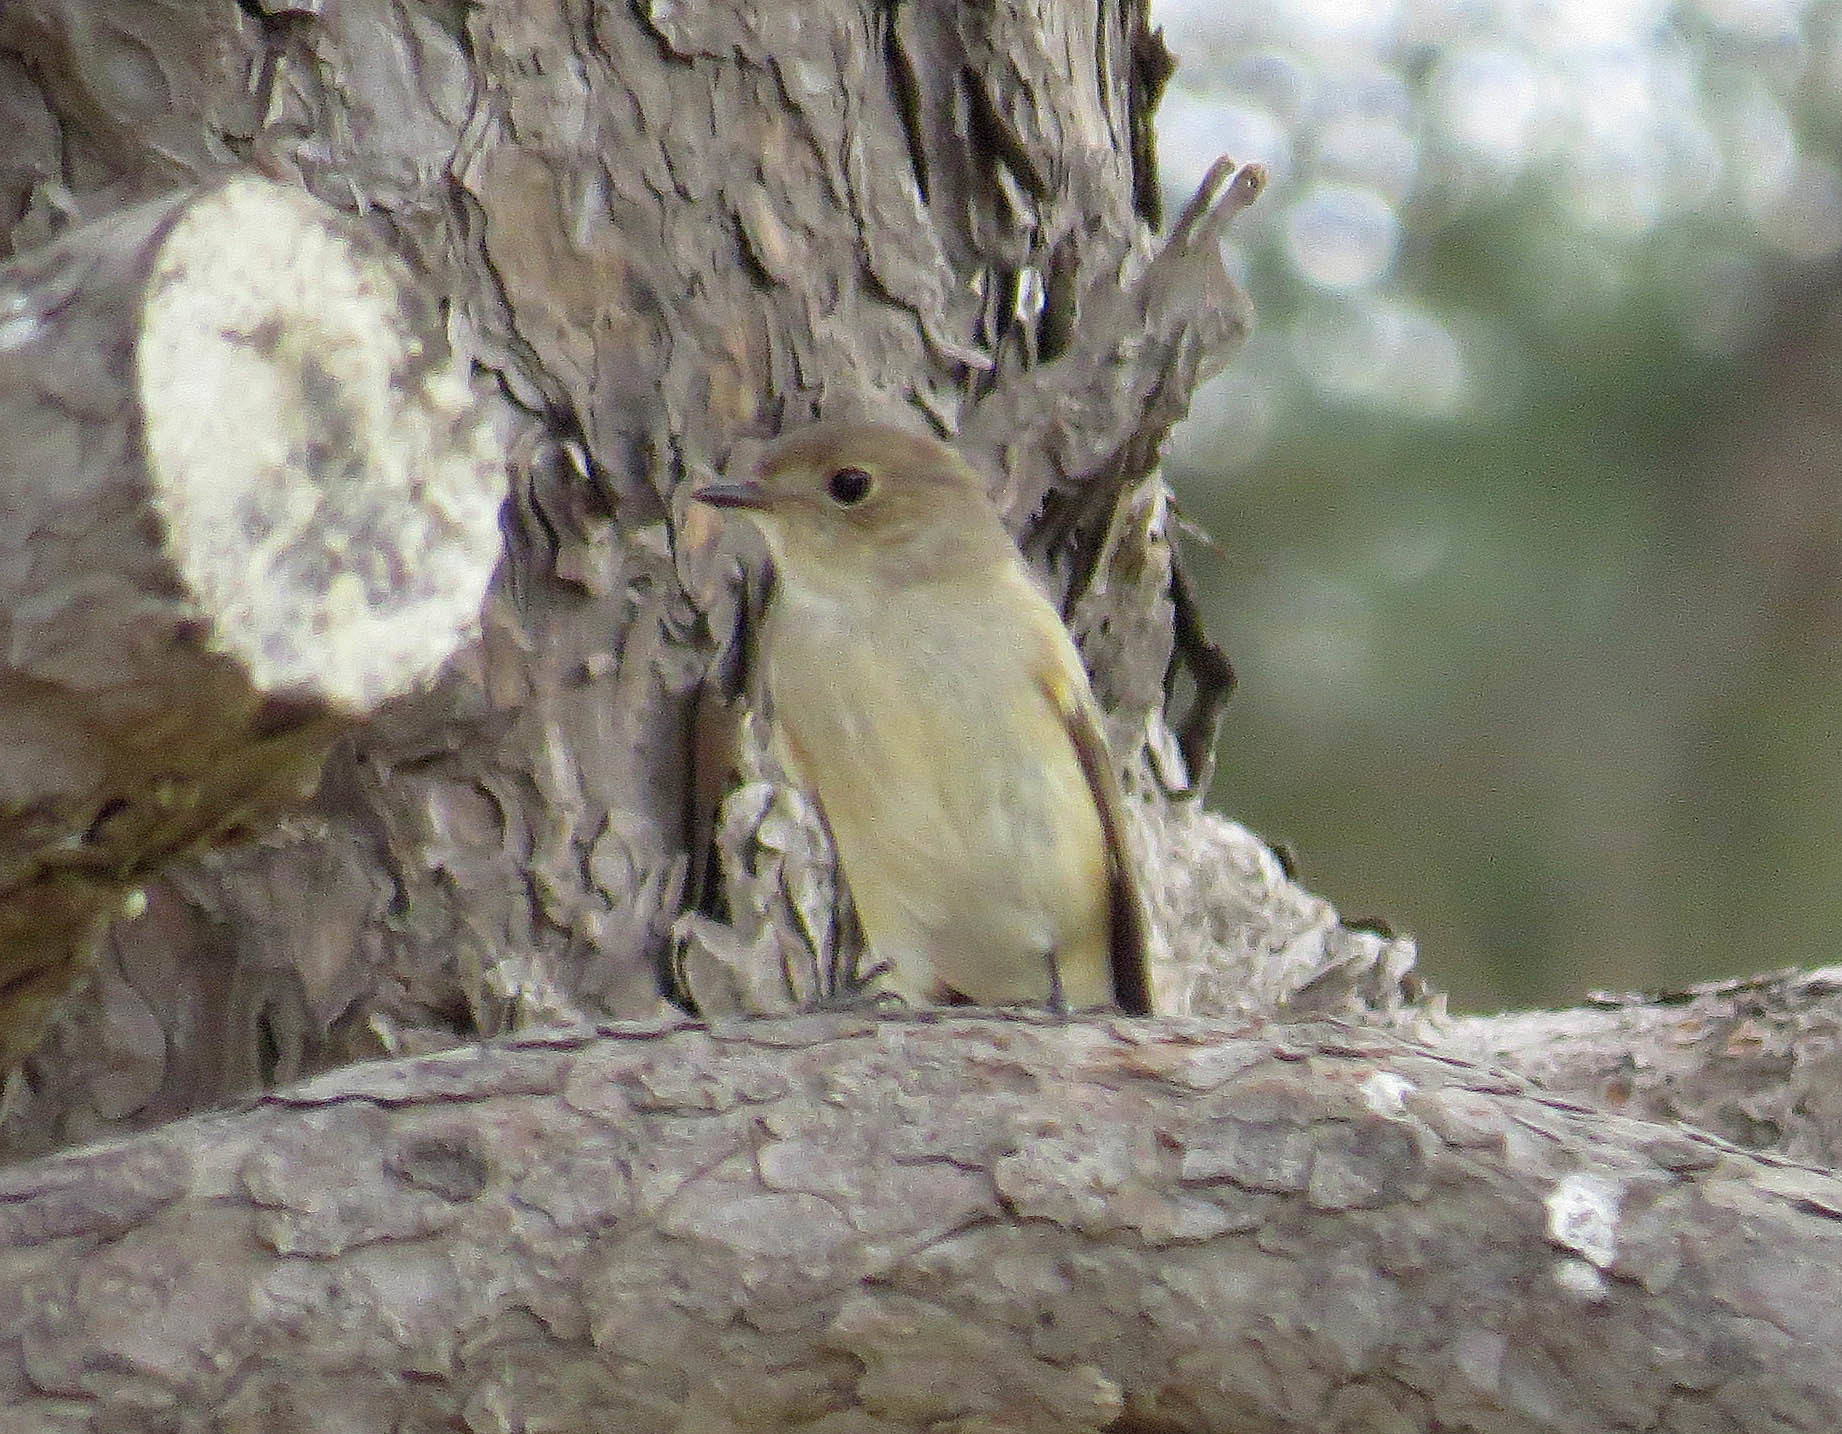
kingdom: Animalia
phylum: Chordata
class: Aves
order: Passeriformes
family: Muscicapidae
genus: Muscicapa
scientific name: Muscicapa latirostris
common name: Asian brown flycatcher
